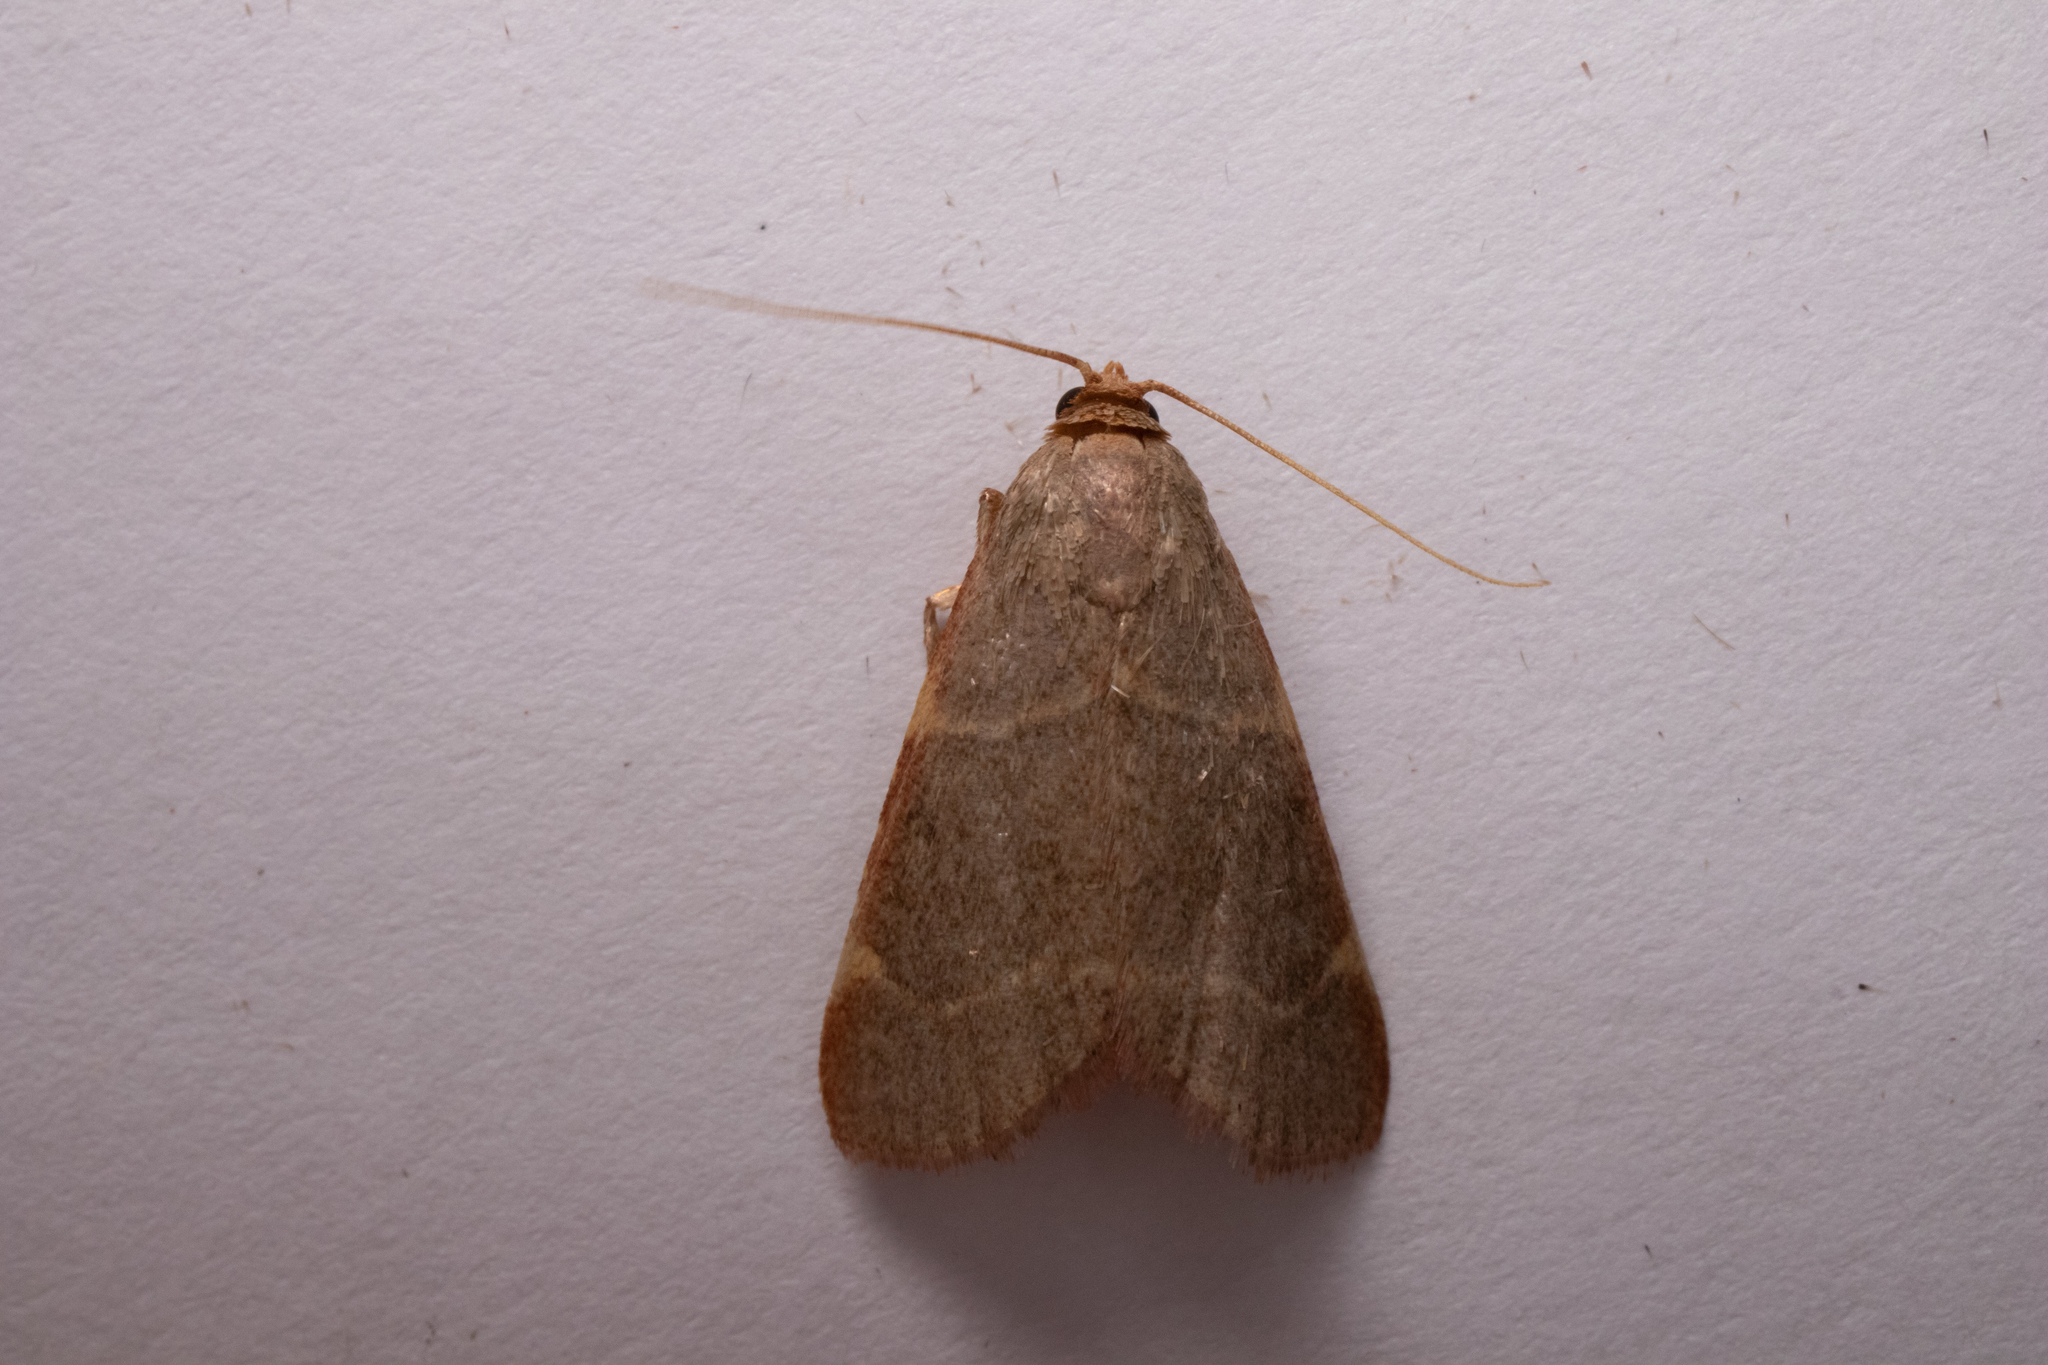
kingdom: Animalia
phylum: Arthropoda
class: Insecta
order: Lepidoptera
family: Pyralidae
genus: Hypsopygia
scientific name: Hypsopygia binodulalis
